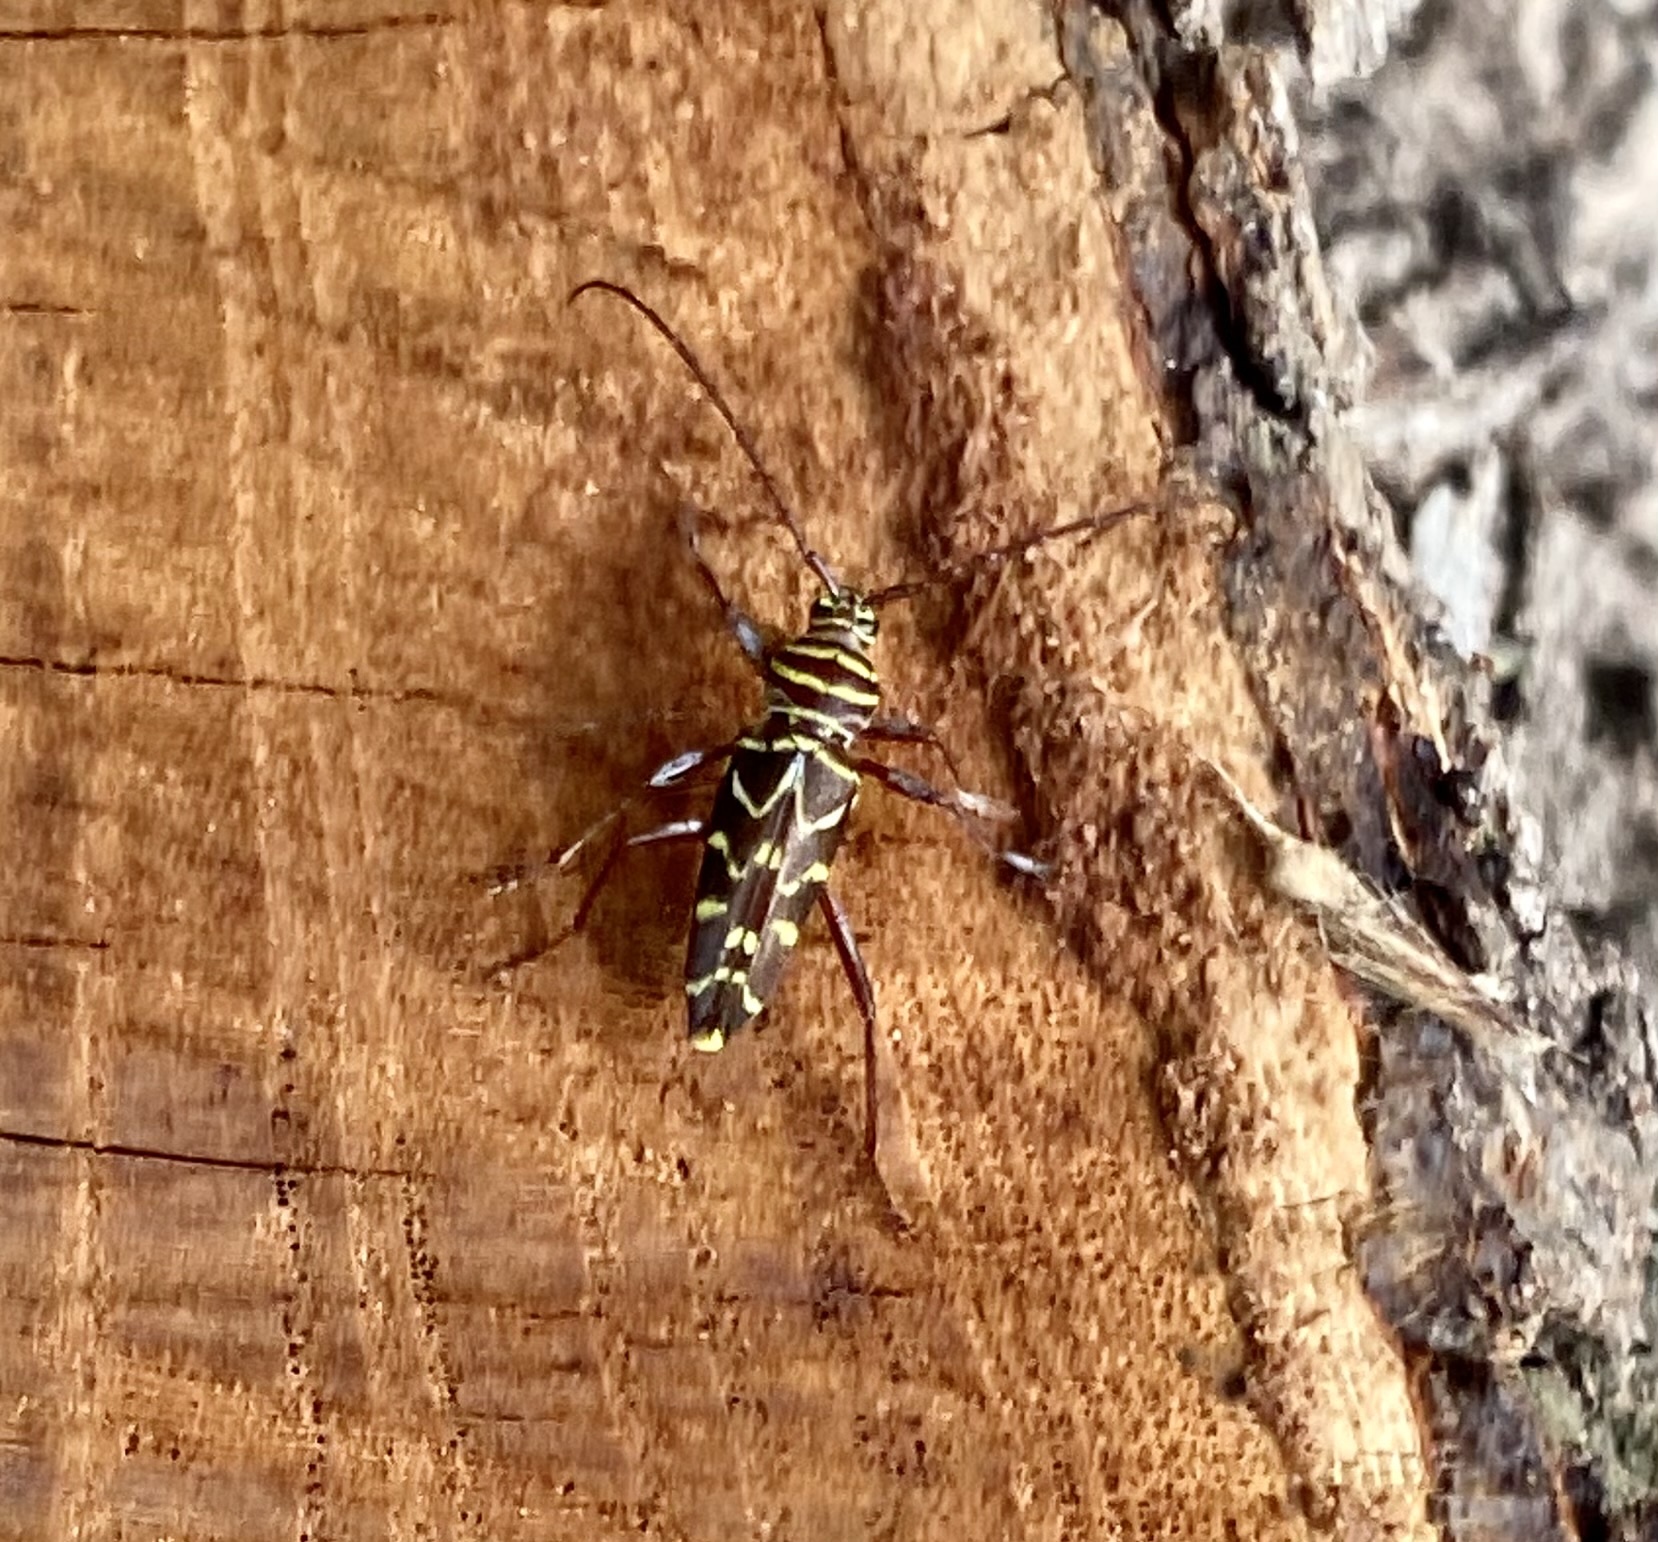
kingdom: Animalia
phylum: Arthropoda
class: Insecta
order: Coleoptera
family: Cerambycidae
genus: Megacyllene
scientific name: Megacyllene acuta
